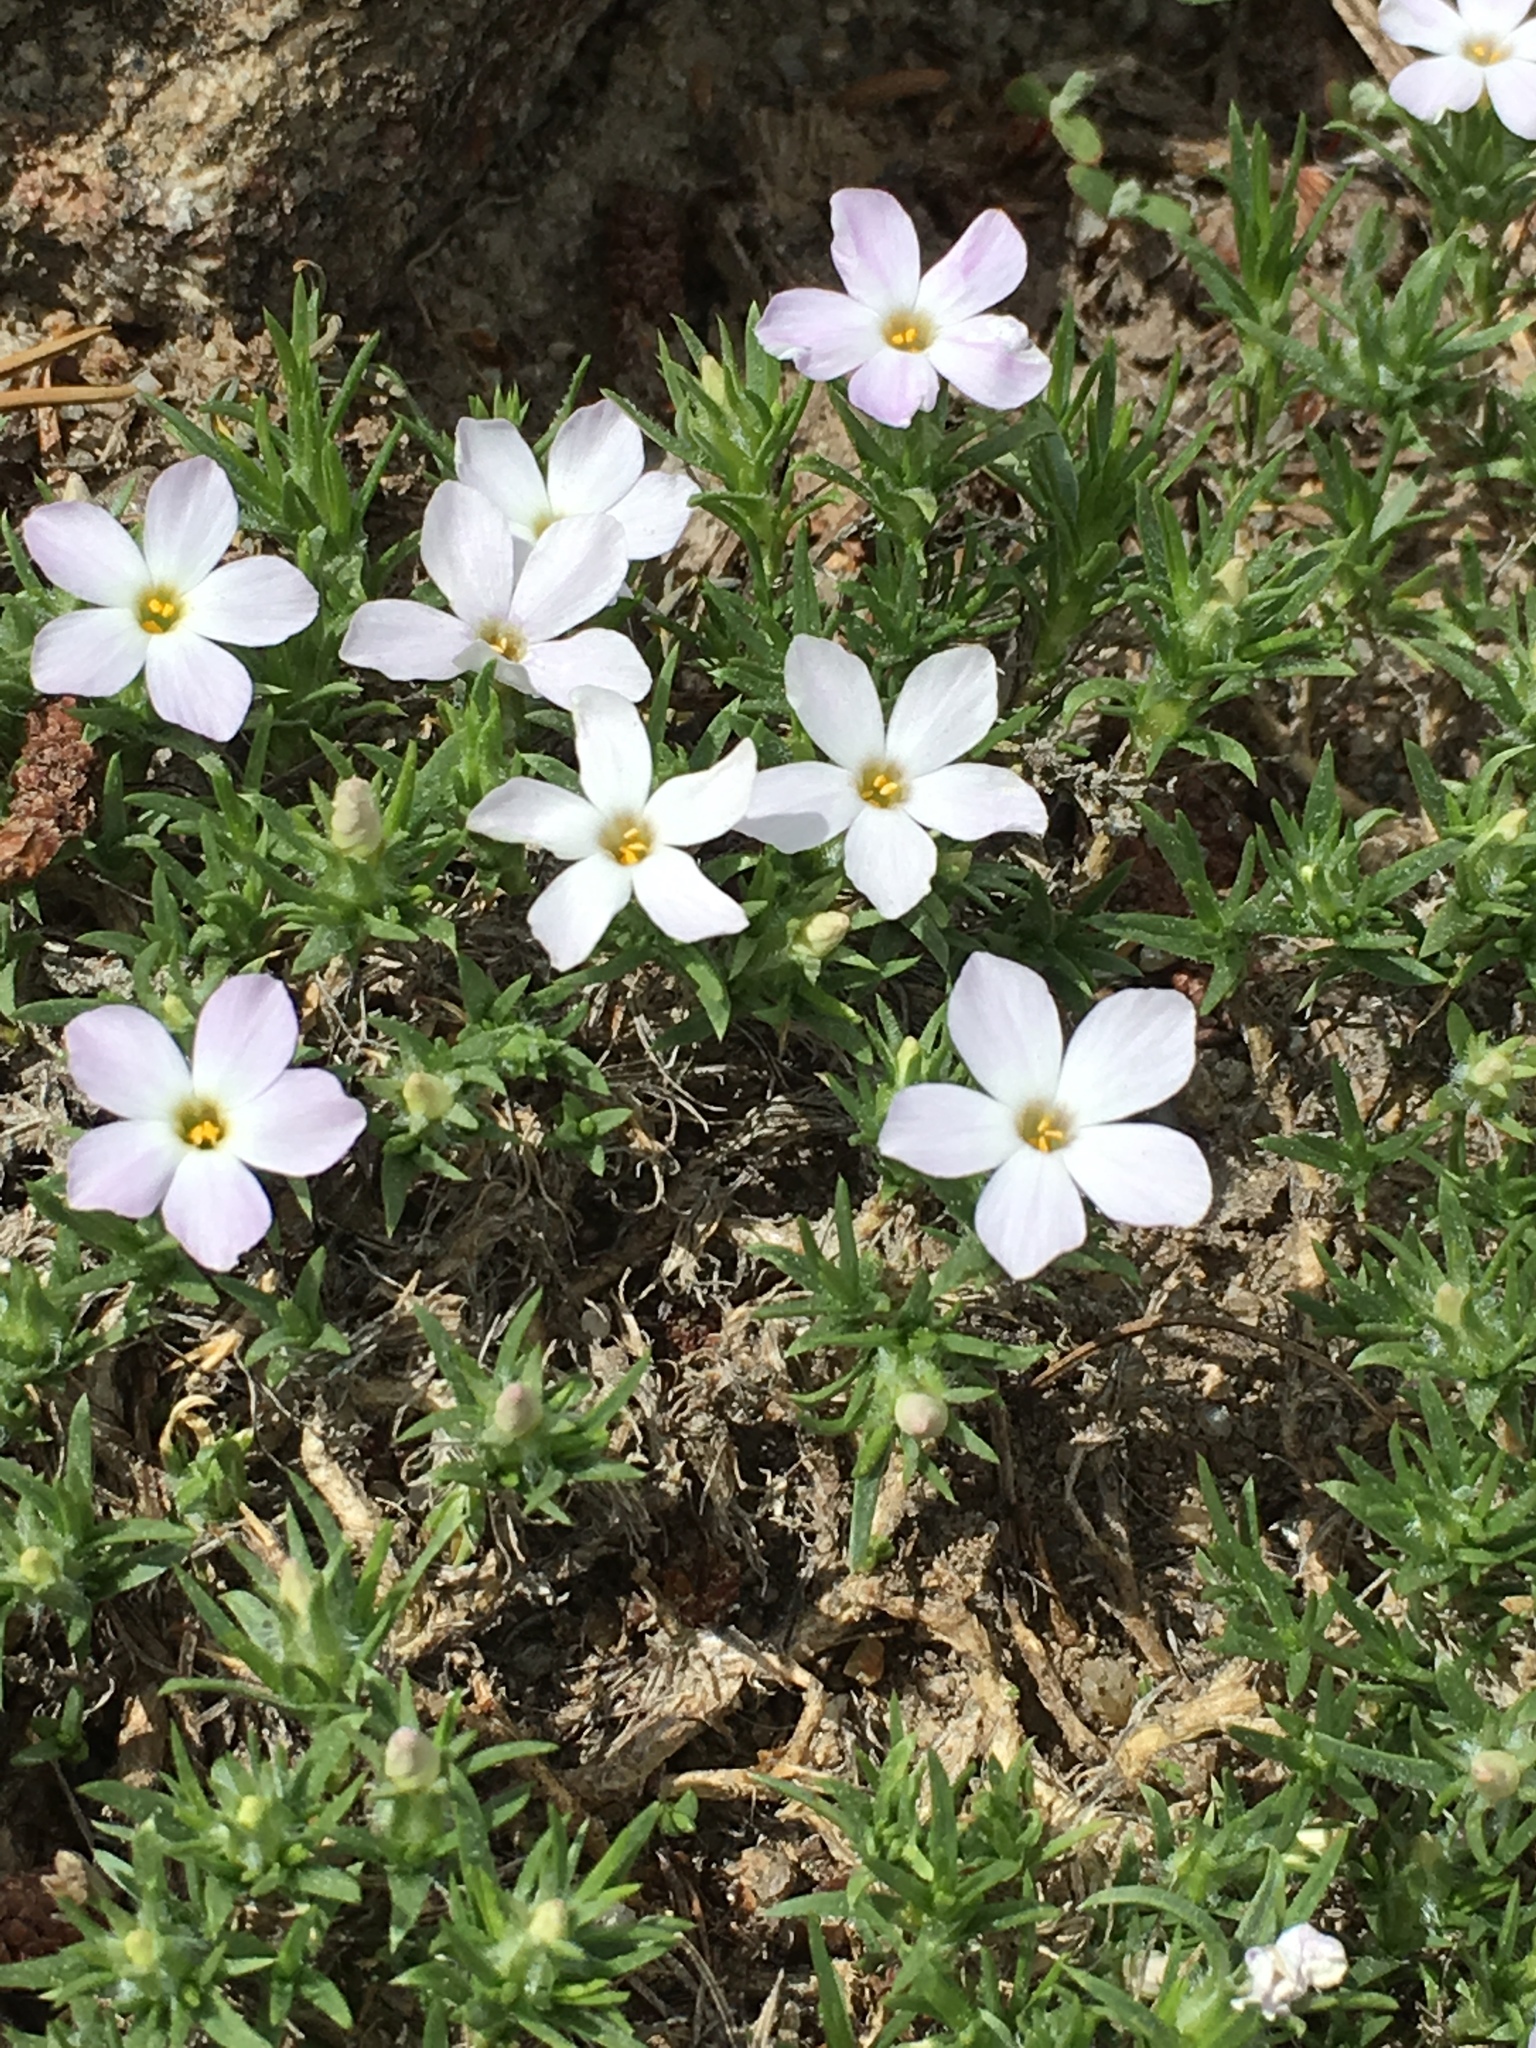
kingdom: Plantae
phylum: Tracheophyta
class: Magnoliopsida
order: Ericales
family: Polemoniaceae
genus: Phlox
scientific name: Phlox diffusa
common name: Mat phlox
